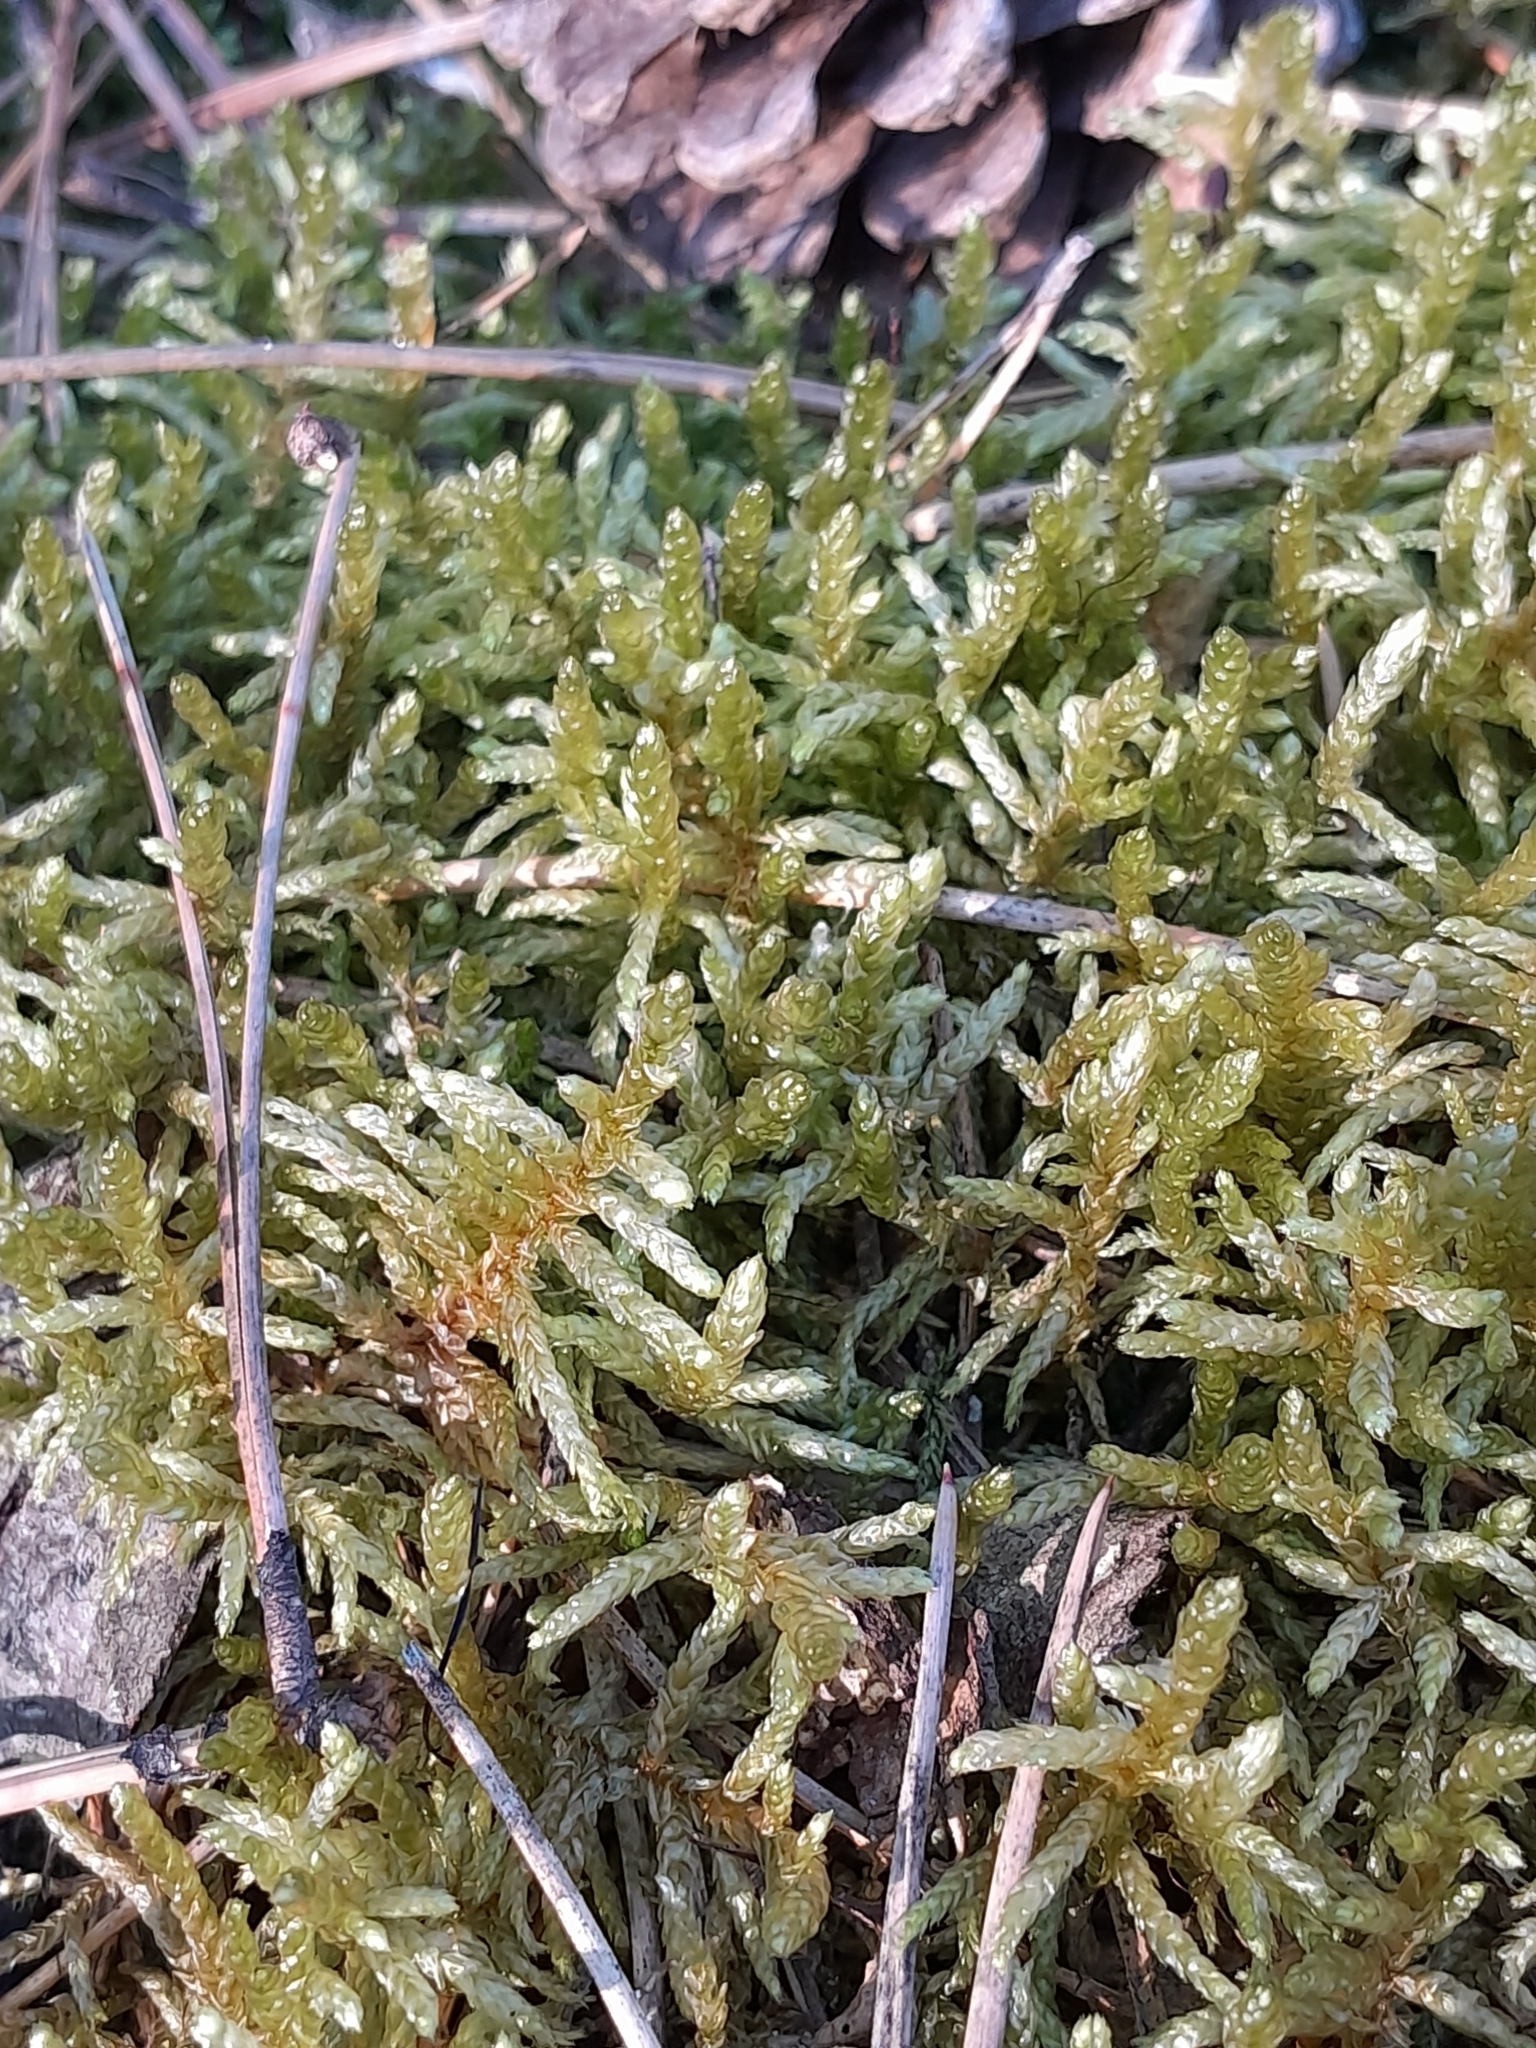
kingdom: Plantae
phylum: Bryophyta
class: Bryopsida
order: Hypnales
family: Brachytheciaceae
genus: Pseudoscleropodium
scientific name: Pseudoscleropodium purum
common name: Neat feather-moss
